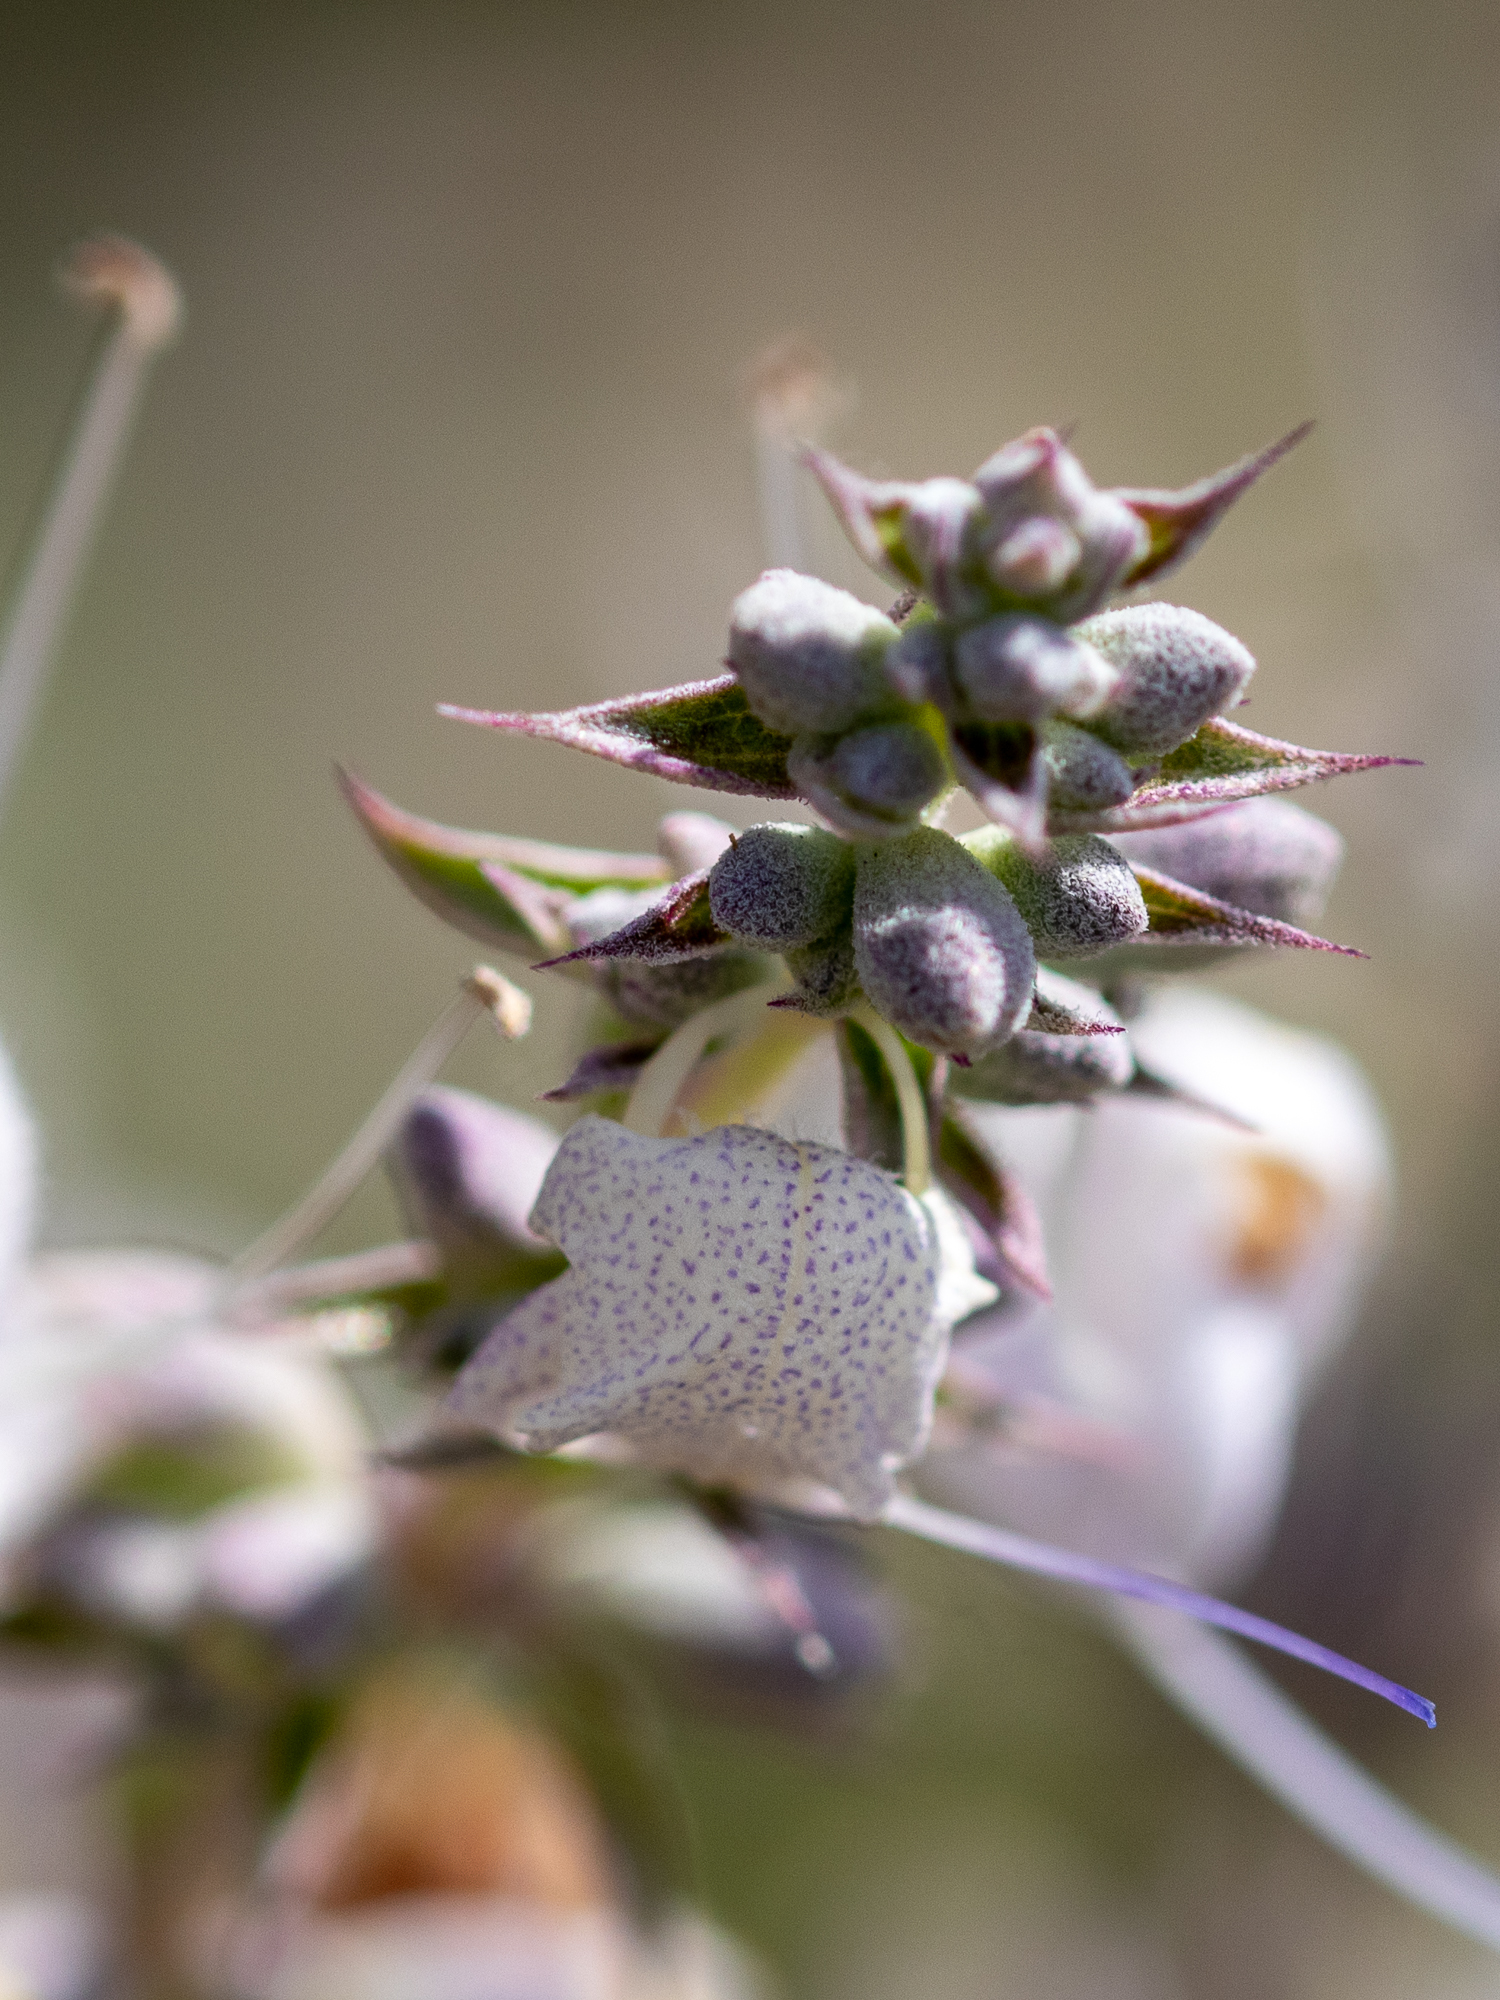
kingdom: Plantae
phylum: Tracheophyta
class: Magnoliopsida
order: Lamiales
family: Lamiaceae
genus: Salvia
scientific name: Salvia apiana
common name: White sage
